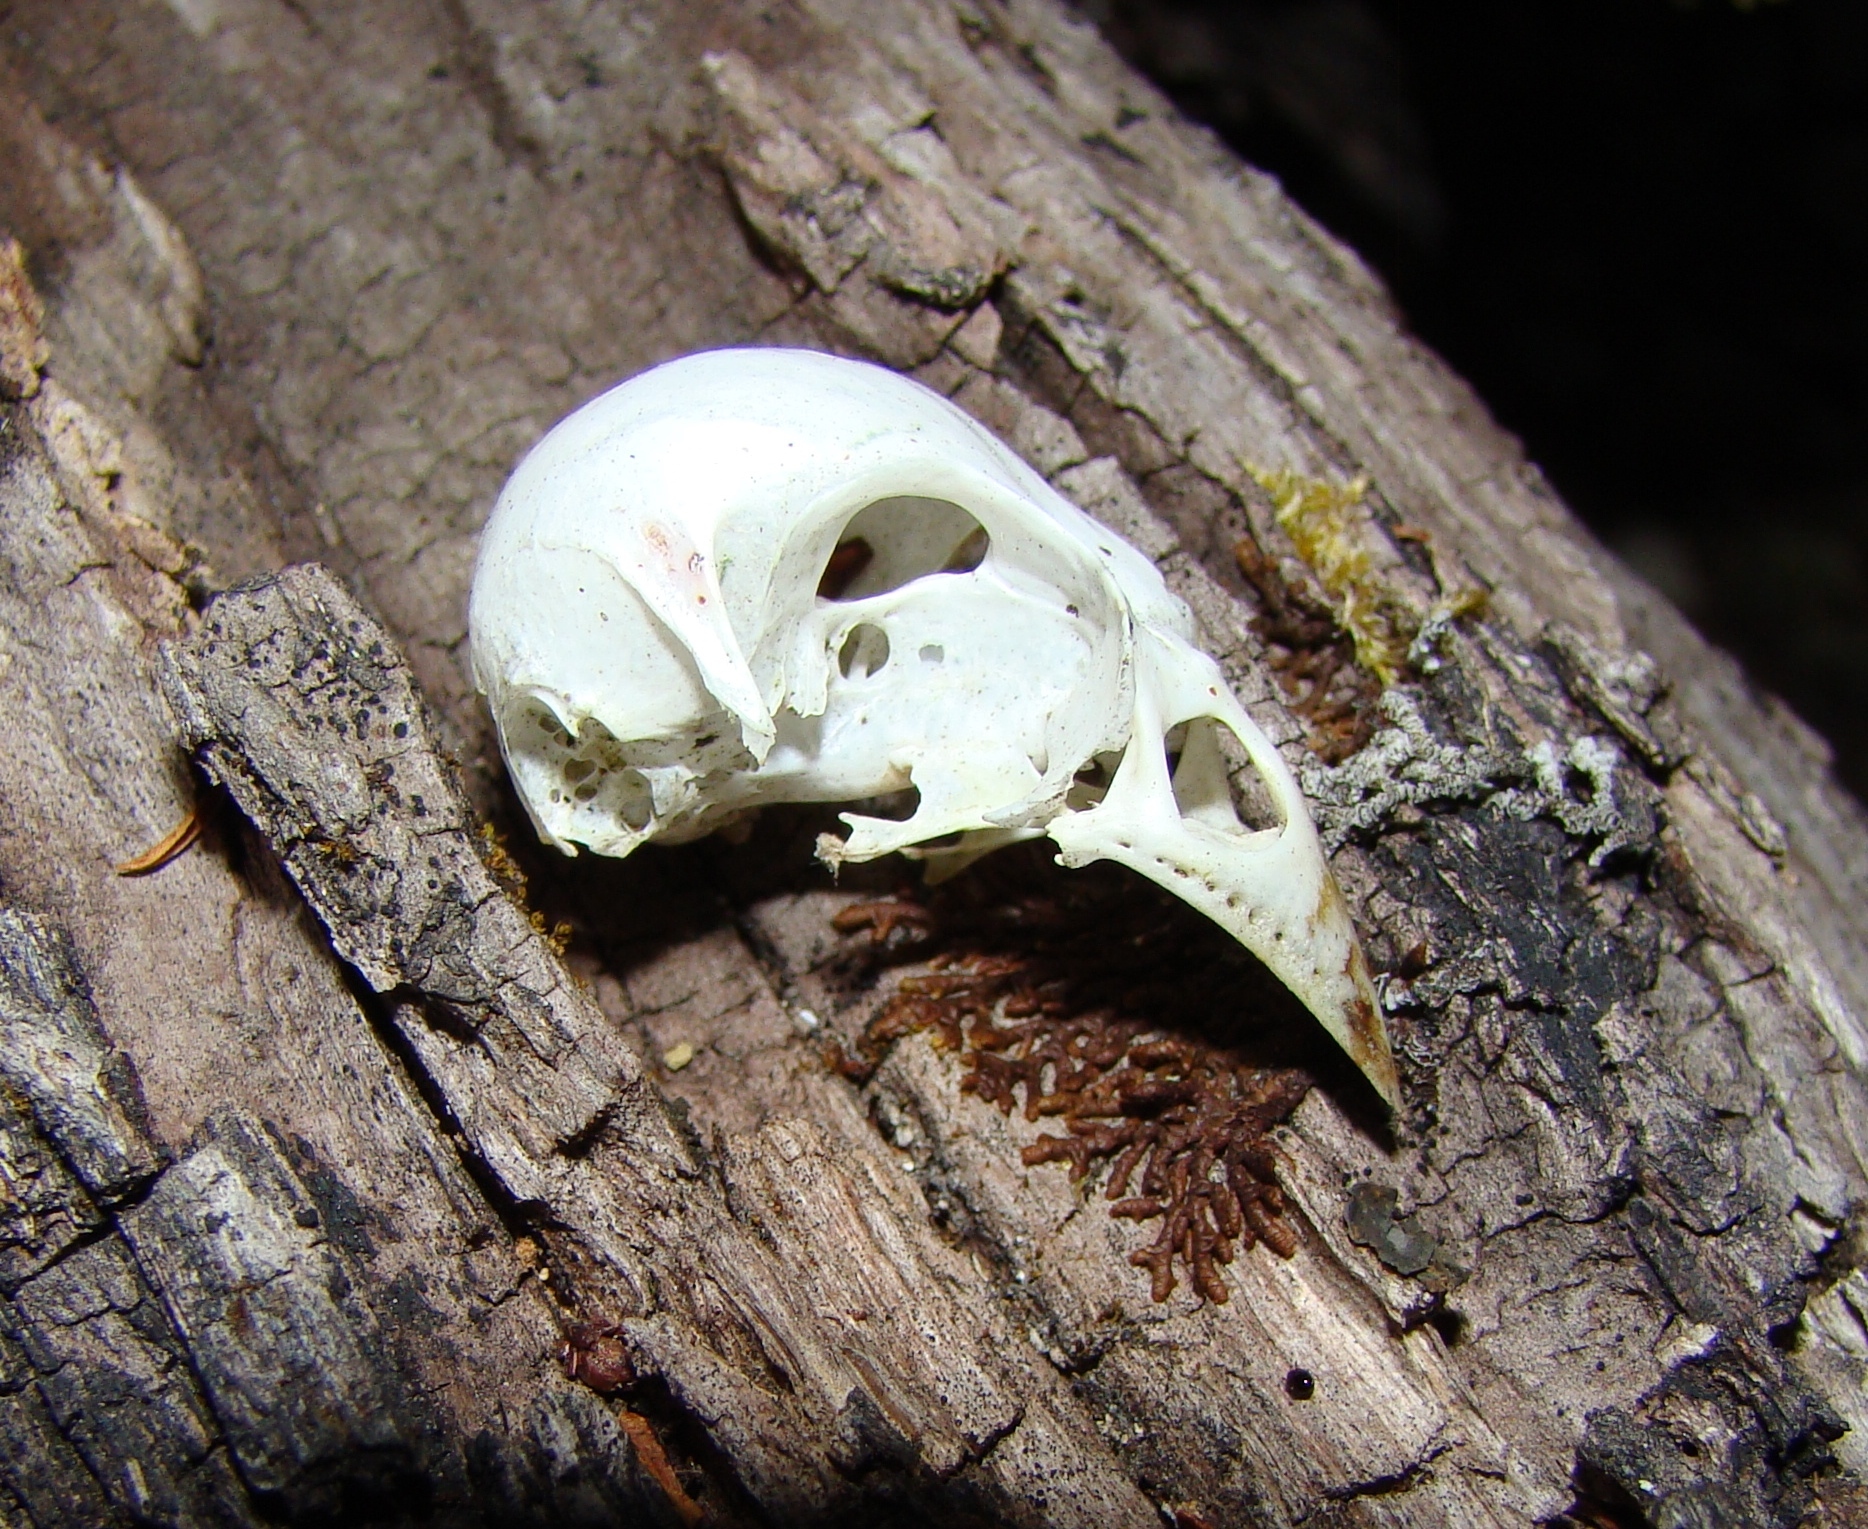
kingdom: Plantae
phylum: Tracheophyta
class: Liliopsida
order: Poales
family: Poaceae
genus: Chloris
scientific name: Chloris chloris
